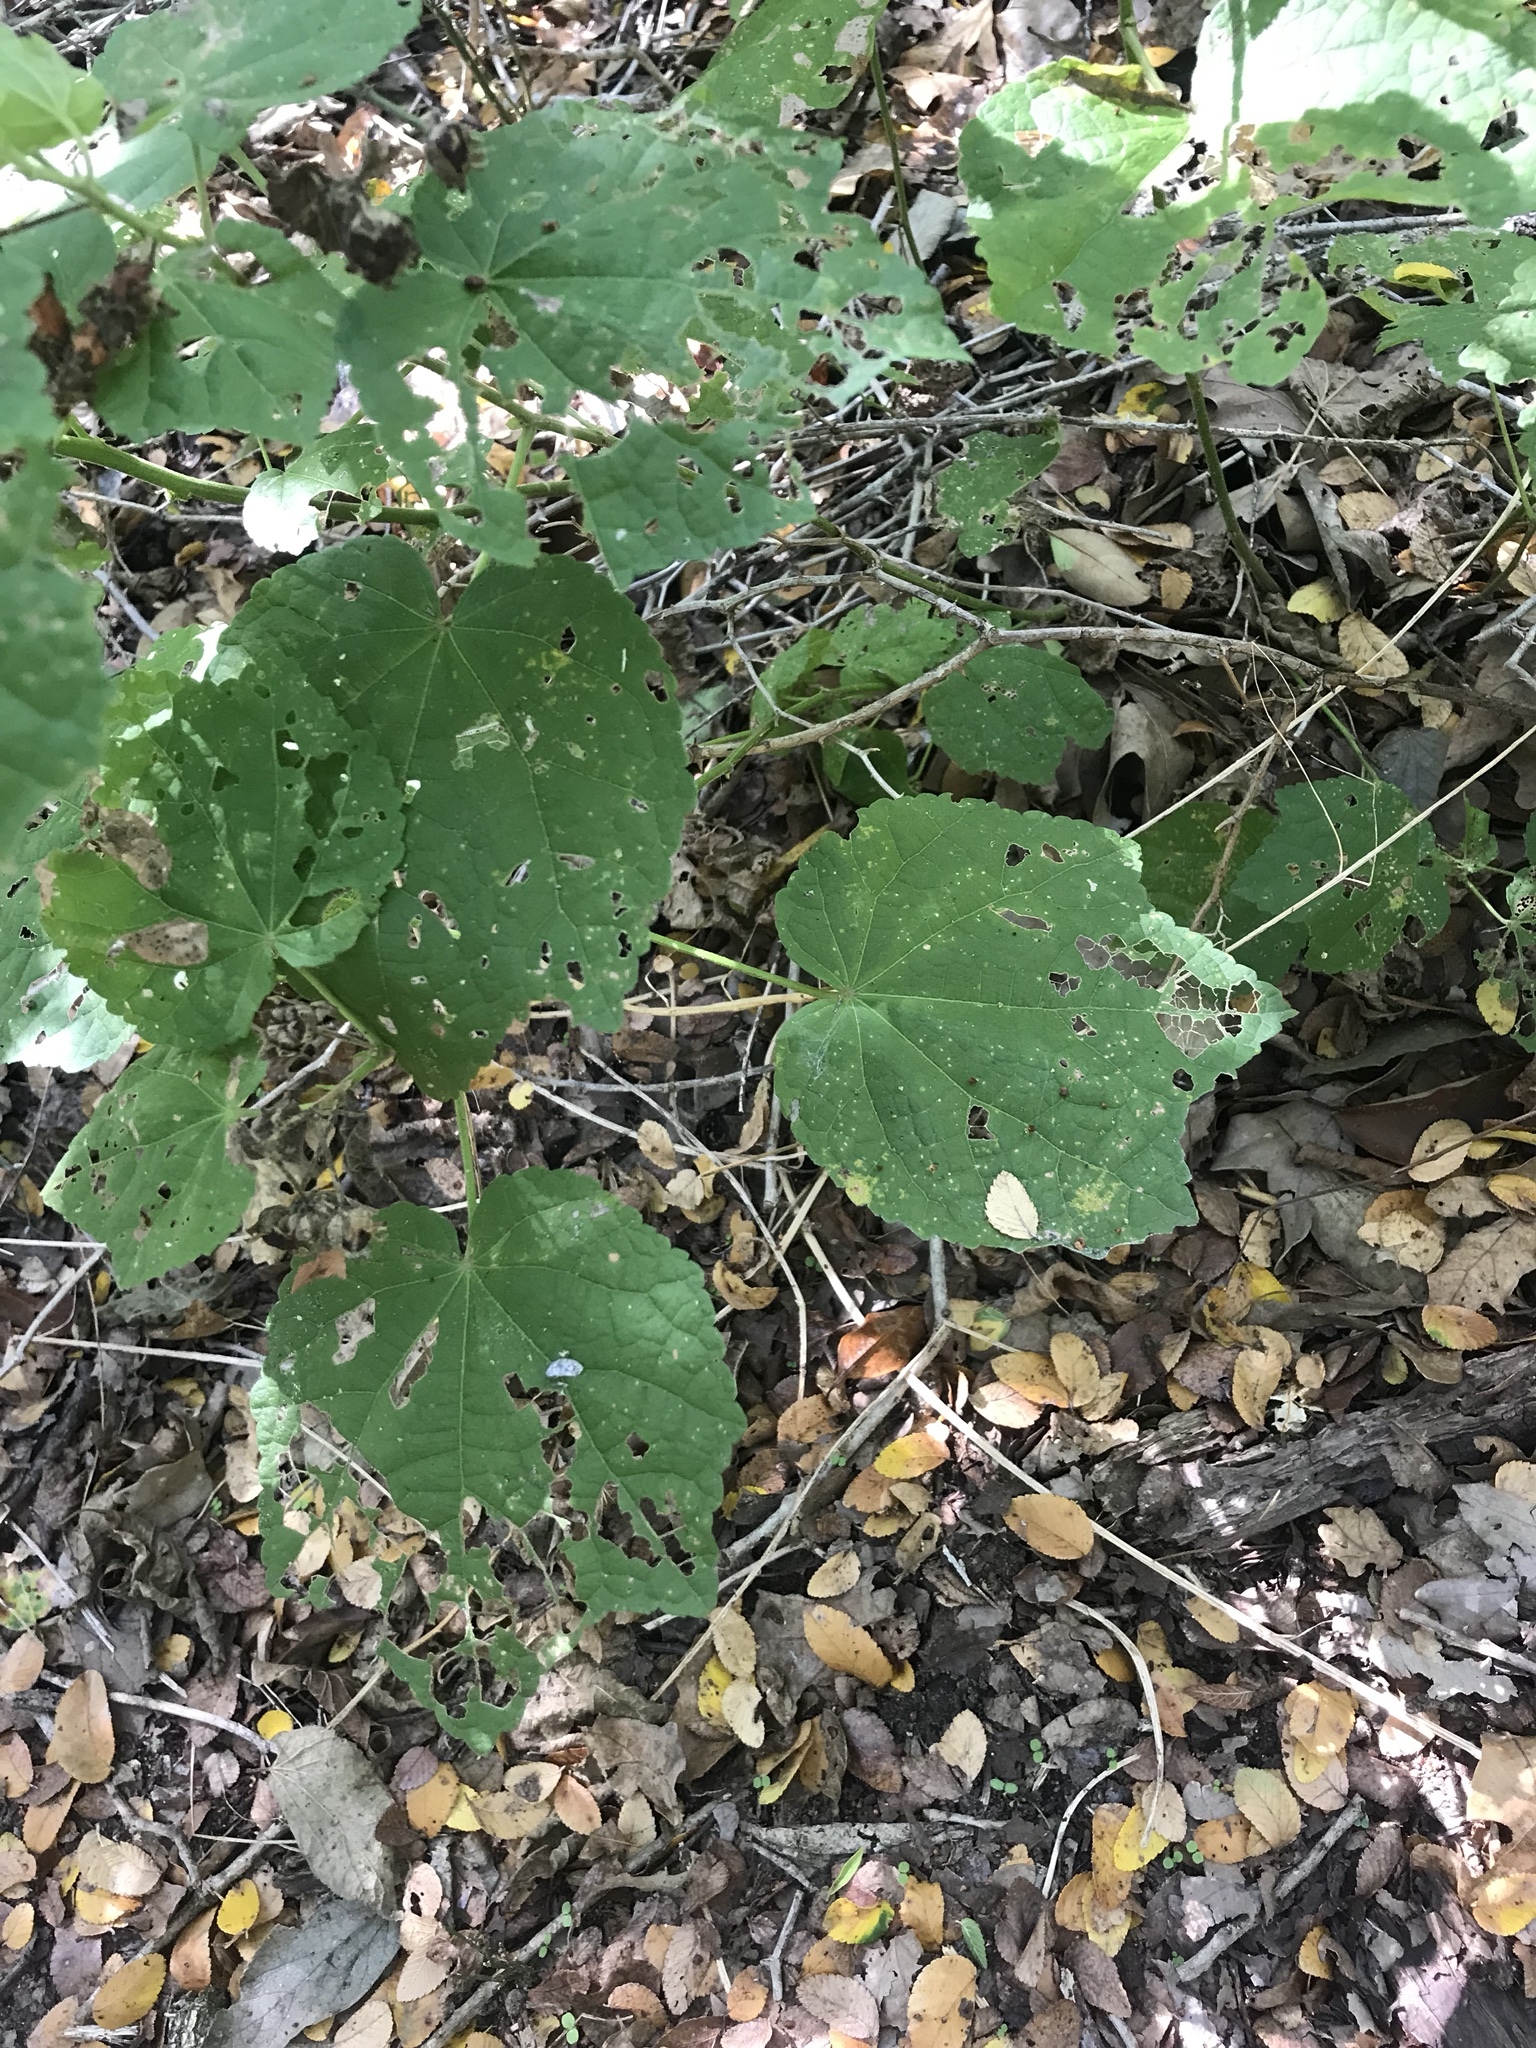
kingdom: Plantae
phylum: Tracheophyta
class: Magnoliopsida
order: Malvales
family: Malvaceae
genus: Malvaviscus
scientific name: Malvaviscus arboreus
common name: Wax mallow
